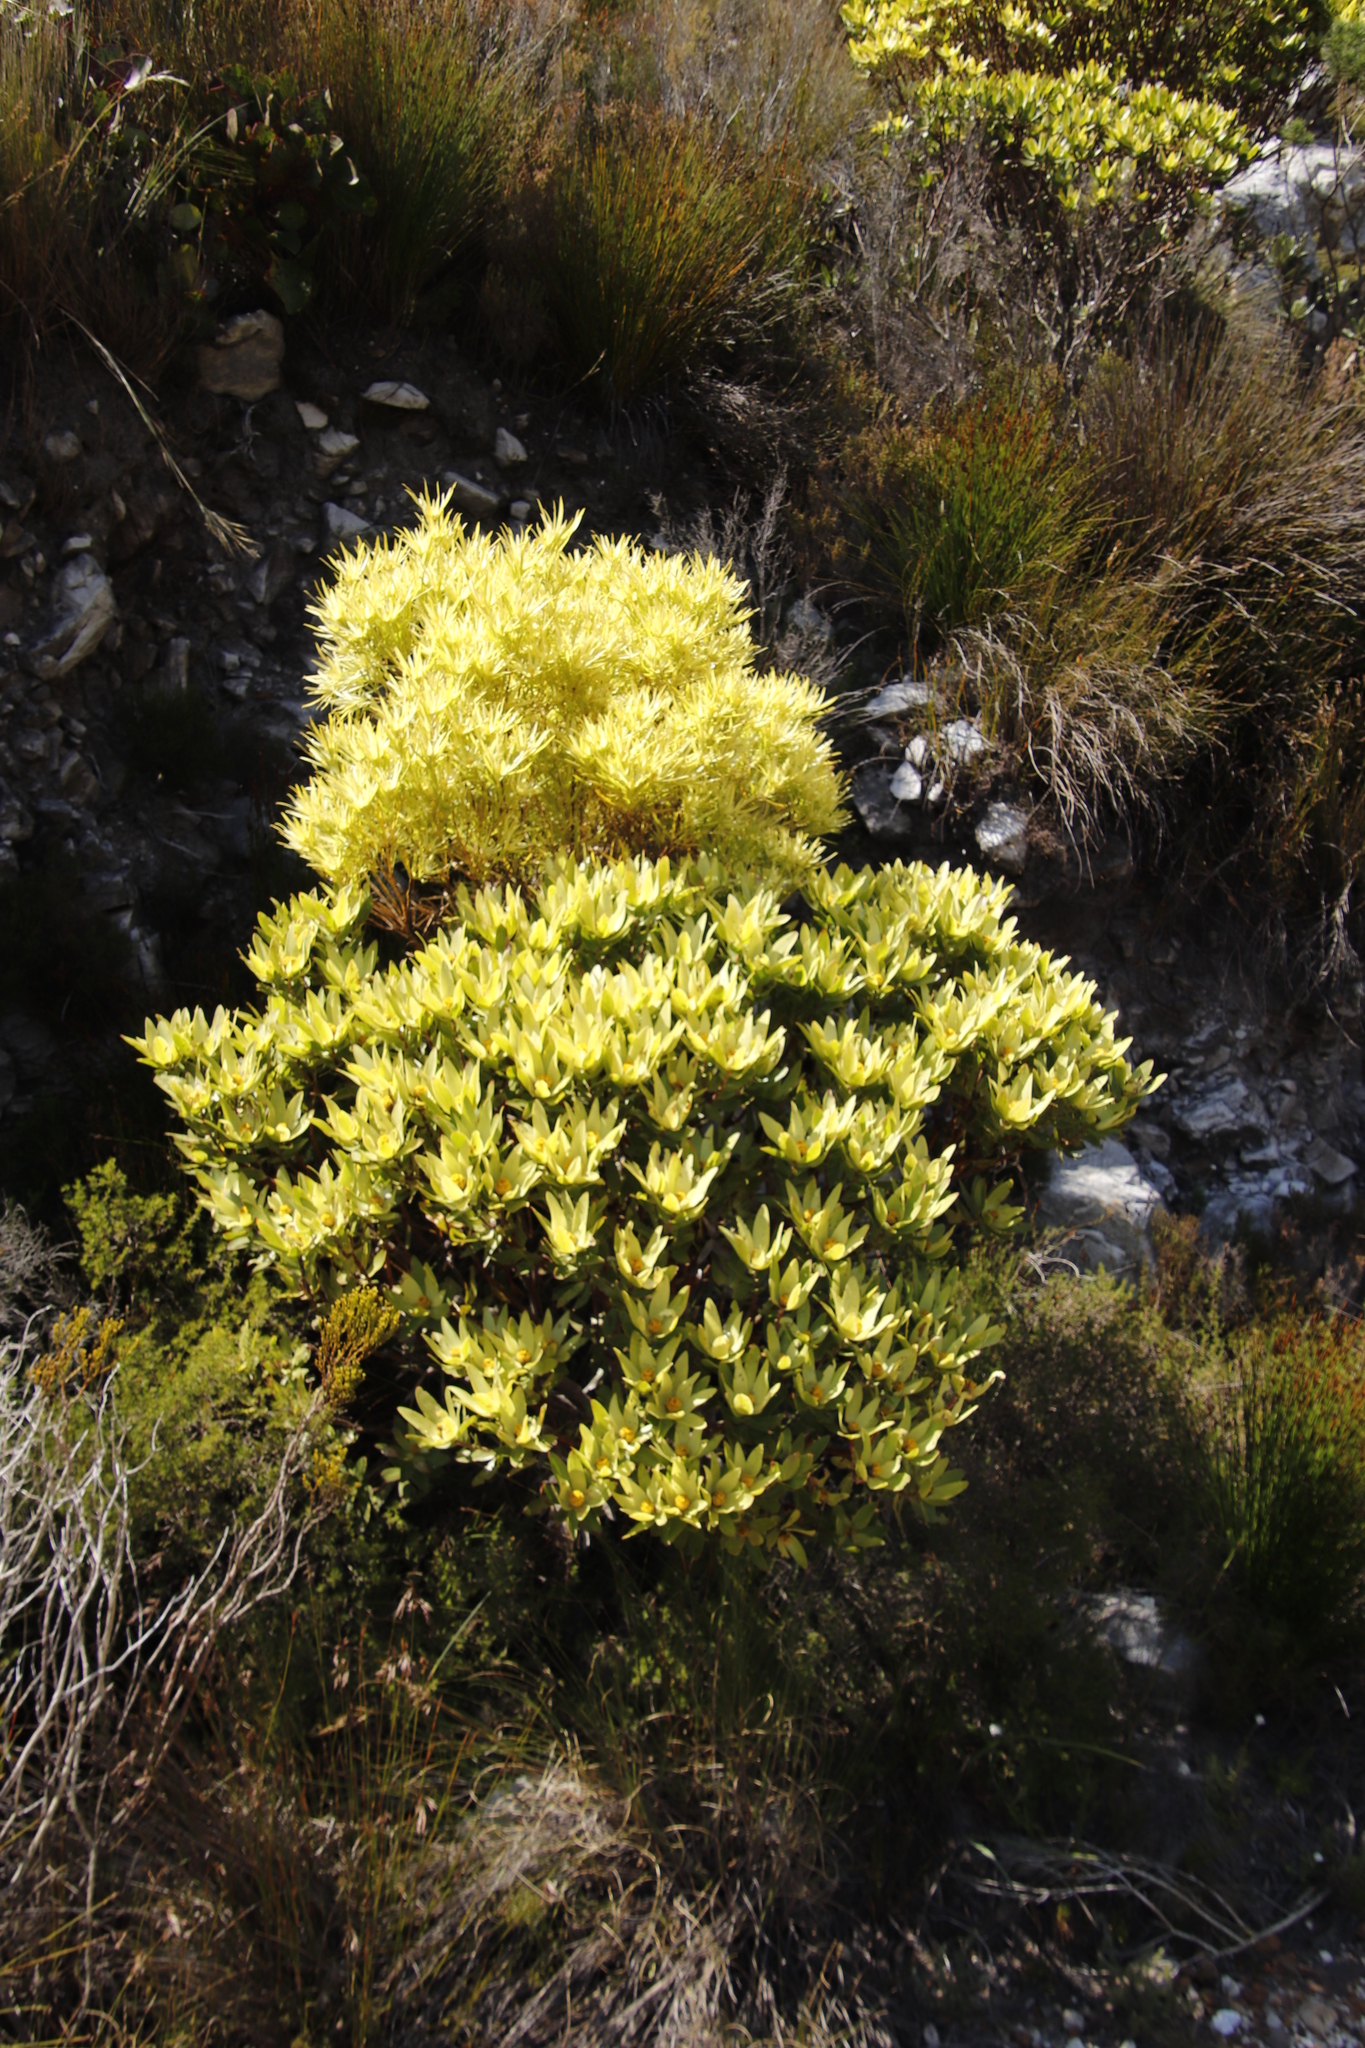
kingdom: Plantae
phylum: Tracheophyta
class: Magnoliopsida
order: Proteales
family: Proteaceae
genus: Leucadendron
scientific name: Leucadendron xanthoconus
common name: Sickle-leaf conebush
